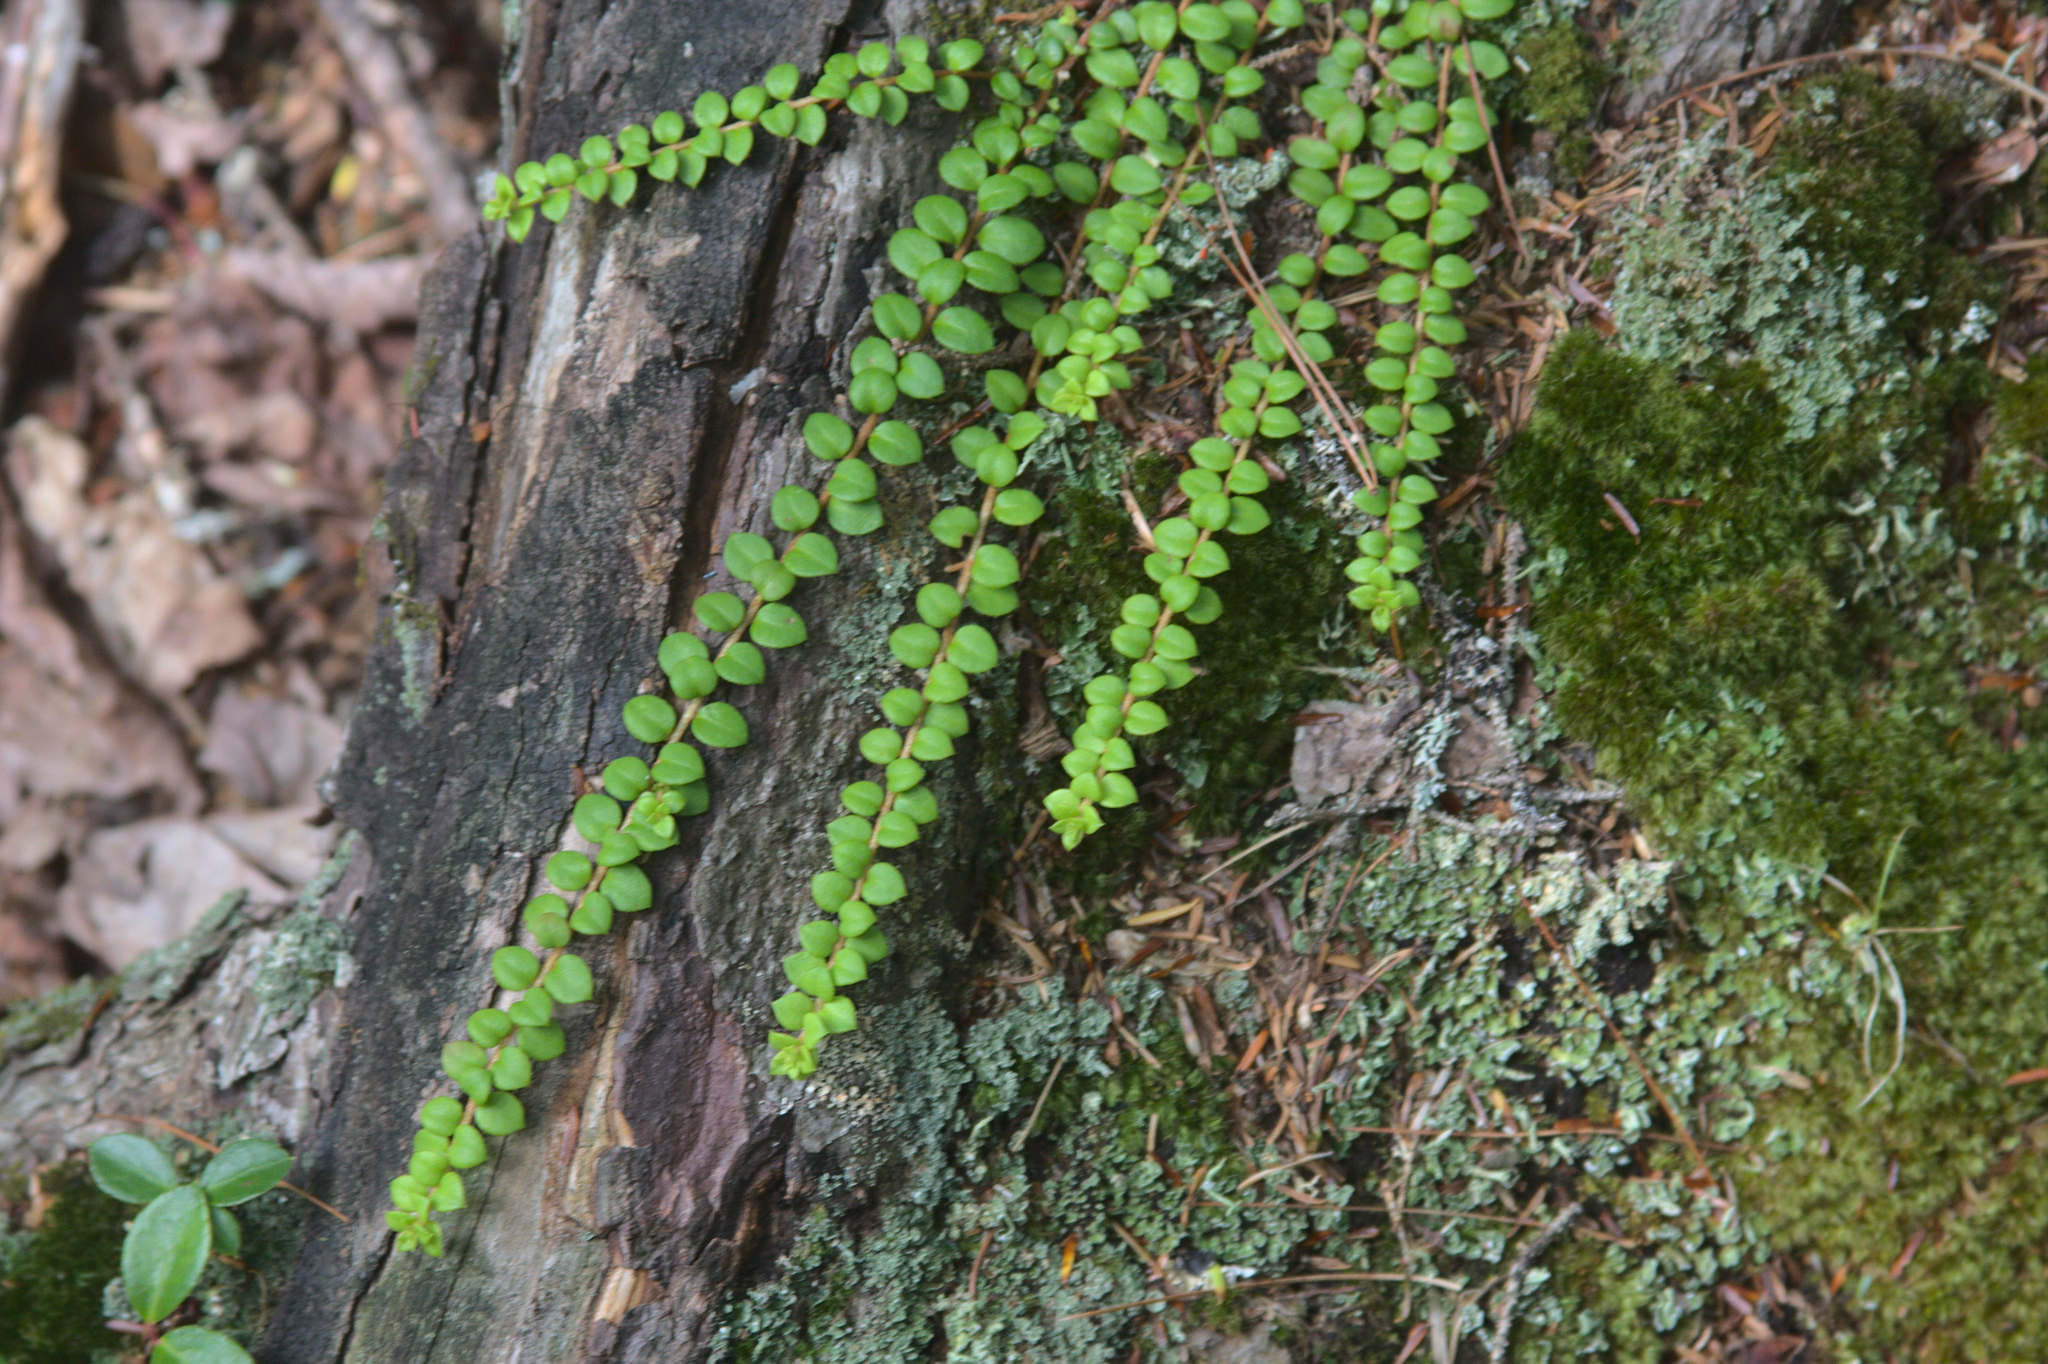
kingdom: Plantae
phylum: Tracheophyta
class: Magnoliopsida
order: Ericales
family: Ericaceae
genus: Gaultheria
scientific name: Gaultheria hispidula
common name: Cancer wintergreen
